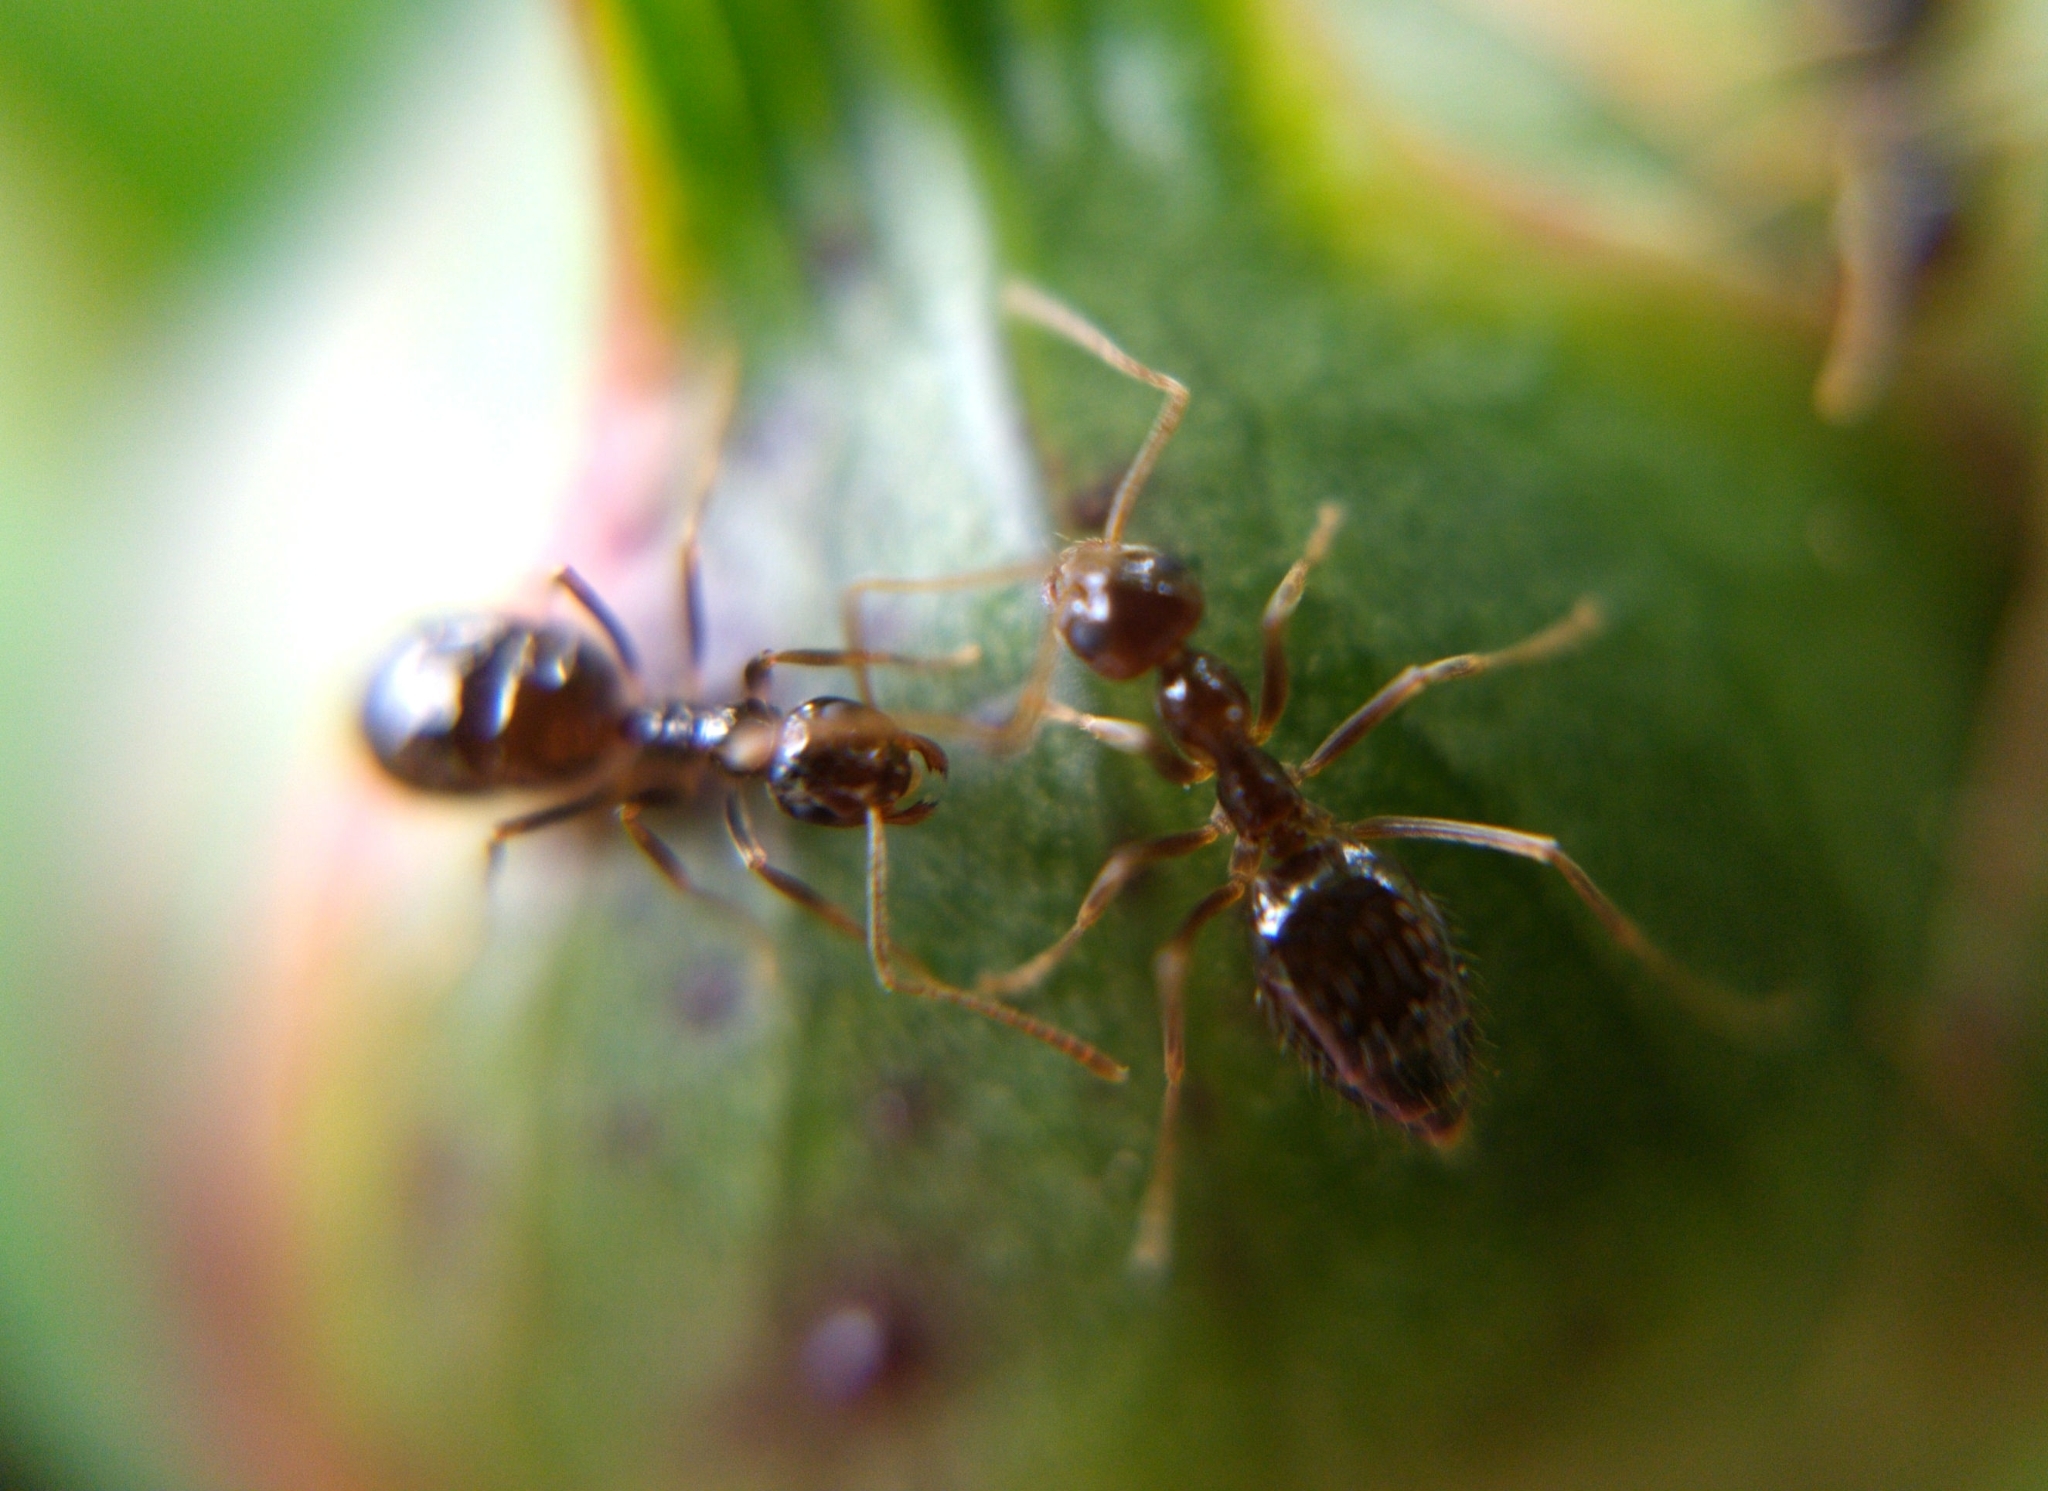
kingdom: Animalia
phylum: Arthropoda
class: Insecta
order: Hymenoptera
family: Formicidae
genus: Prenolepis
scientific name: Prenolepis imparis
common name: Small honey ant
